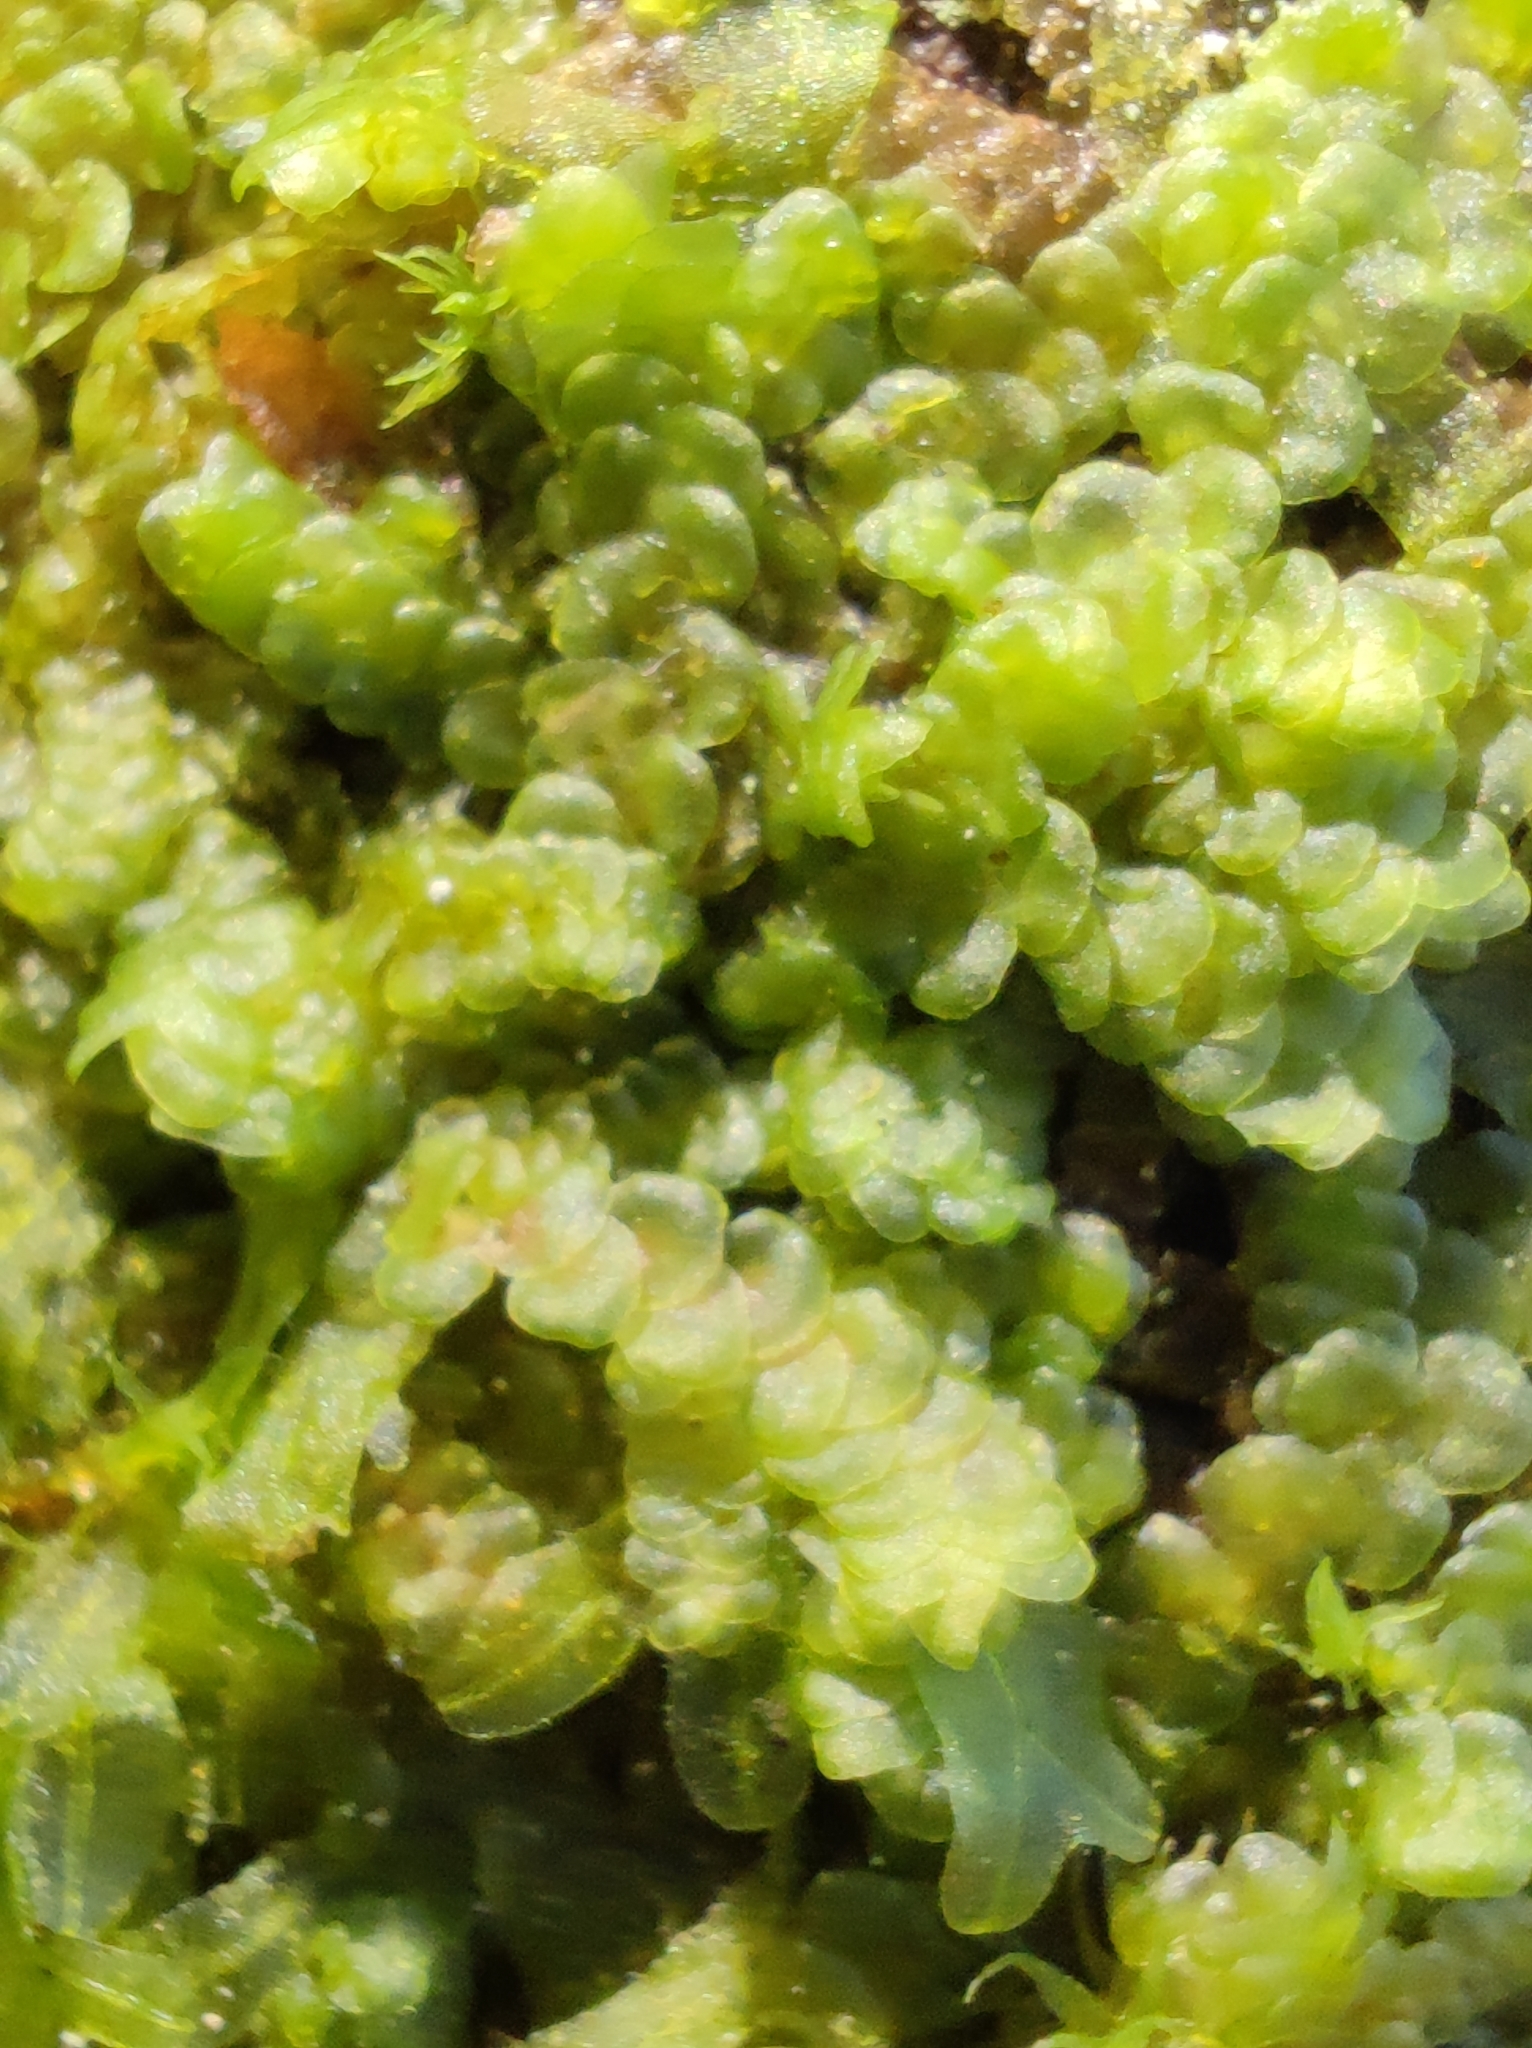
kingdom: Plantae
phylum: Marchantiophyta
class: Jungermanniopsida
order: Porellales
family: Frullaniaceae
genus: Frullania
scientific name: Frullania dilatata
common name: Dilated scalewort
